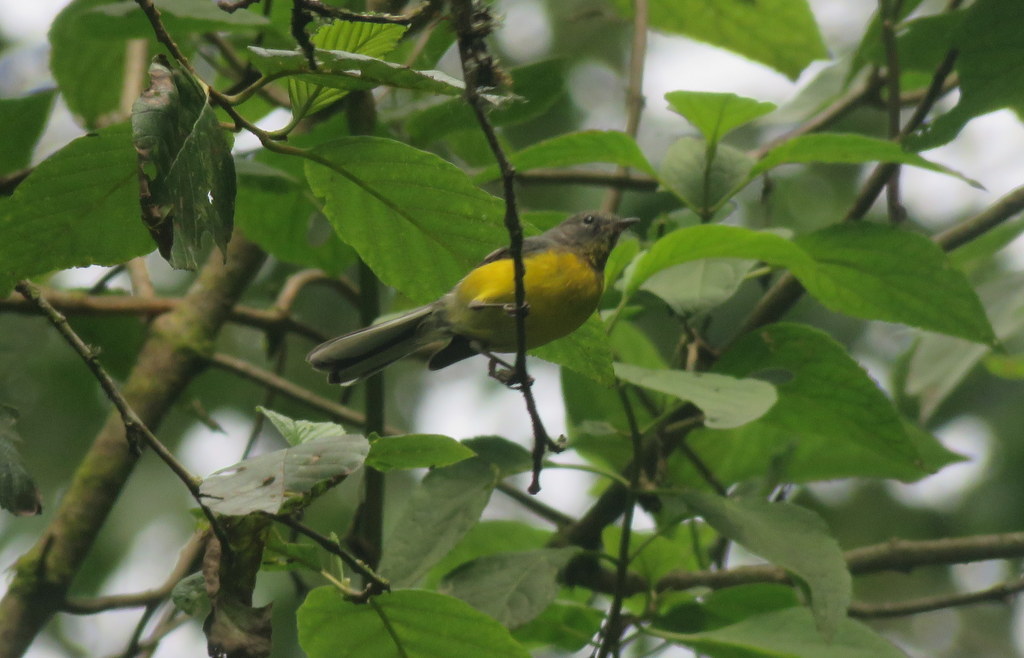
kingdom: Animalia
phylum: Chordata
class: Aves
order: Passeriformes
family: Parulidae
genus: Myioborus
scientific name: Myioborus brunniceps
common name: Brown-capped whitestart
